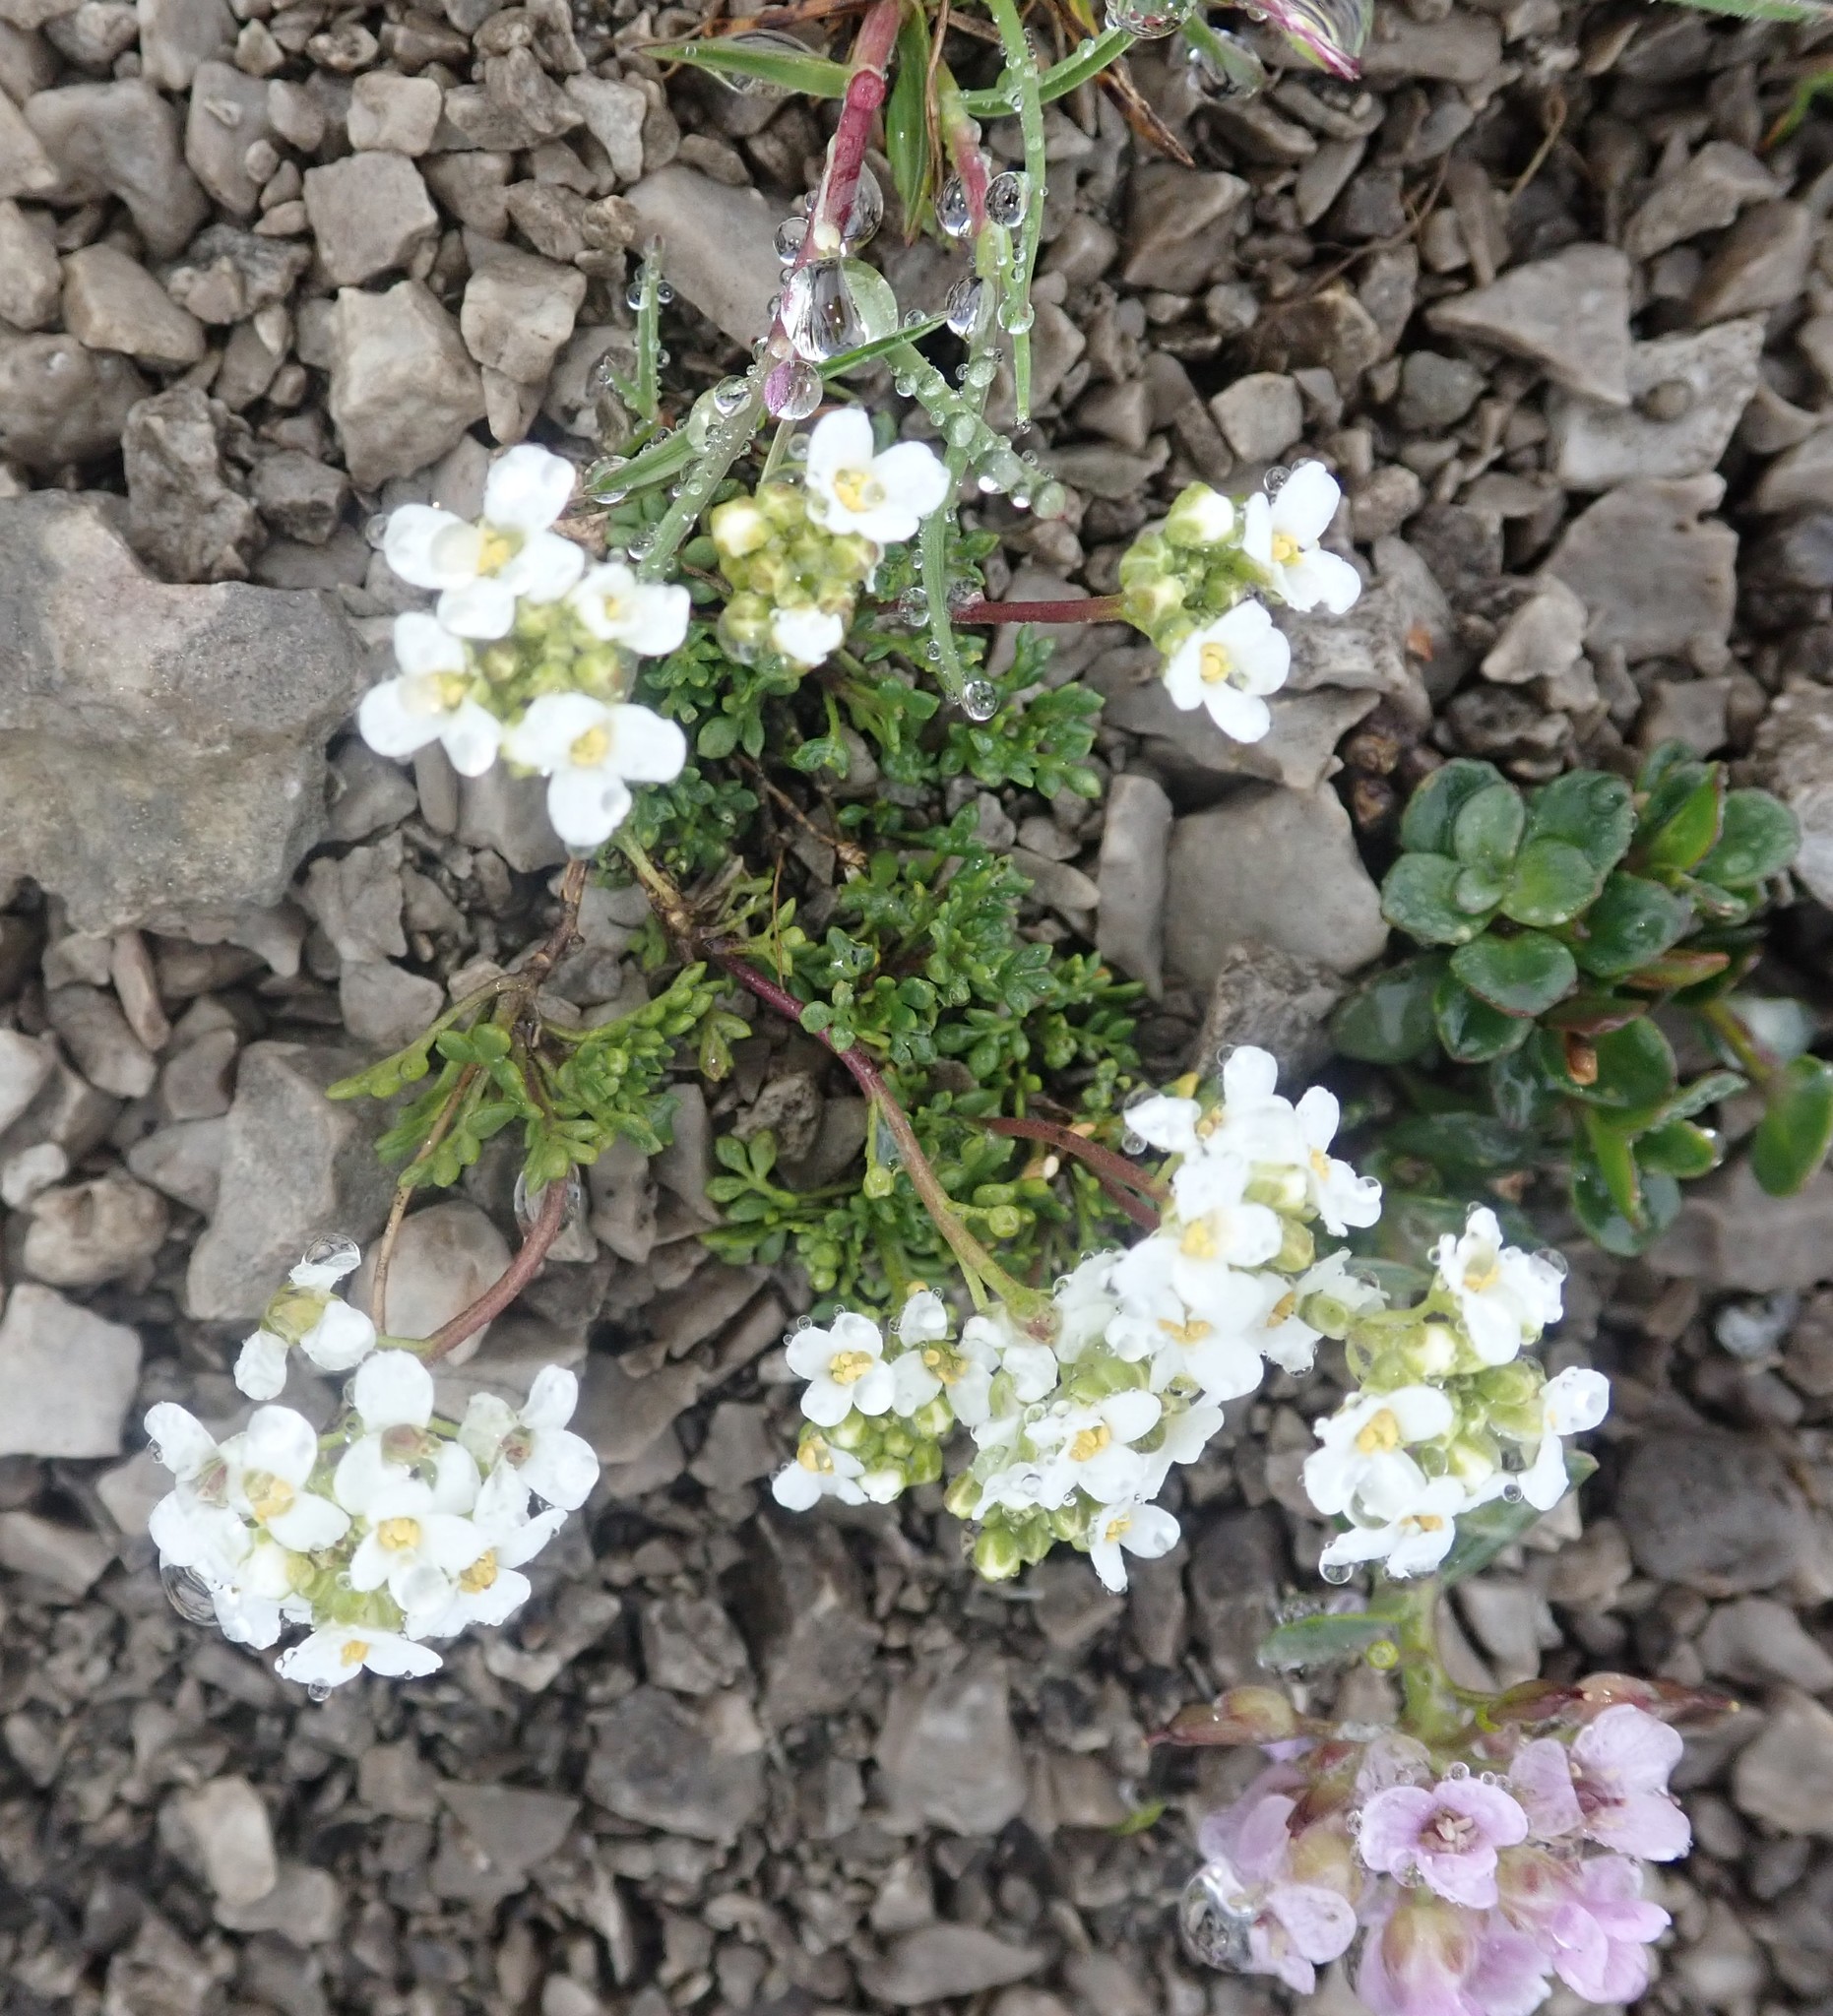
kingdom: Plantae
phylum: Tracheophyta
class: Magnoliopsida
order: Brassicales
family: Brassicaceae
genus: Hornungia
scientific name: Hornungia alpina
